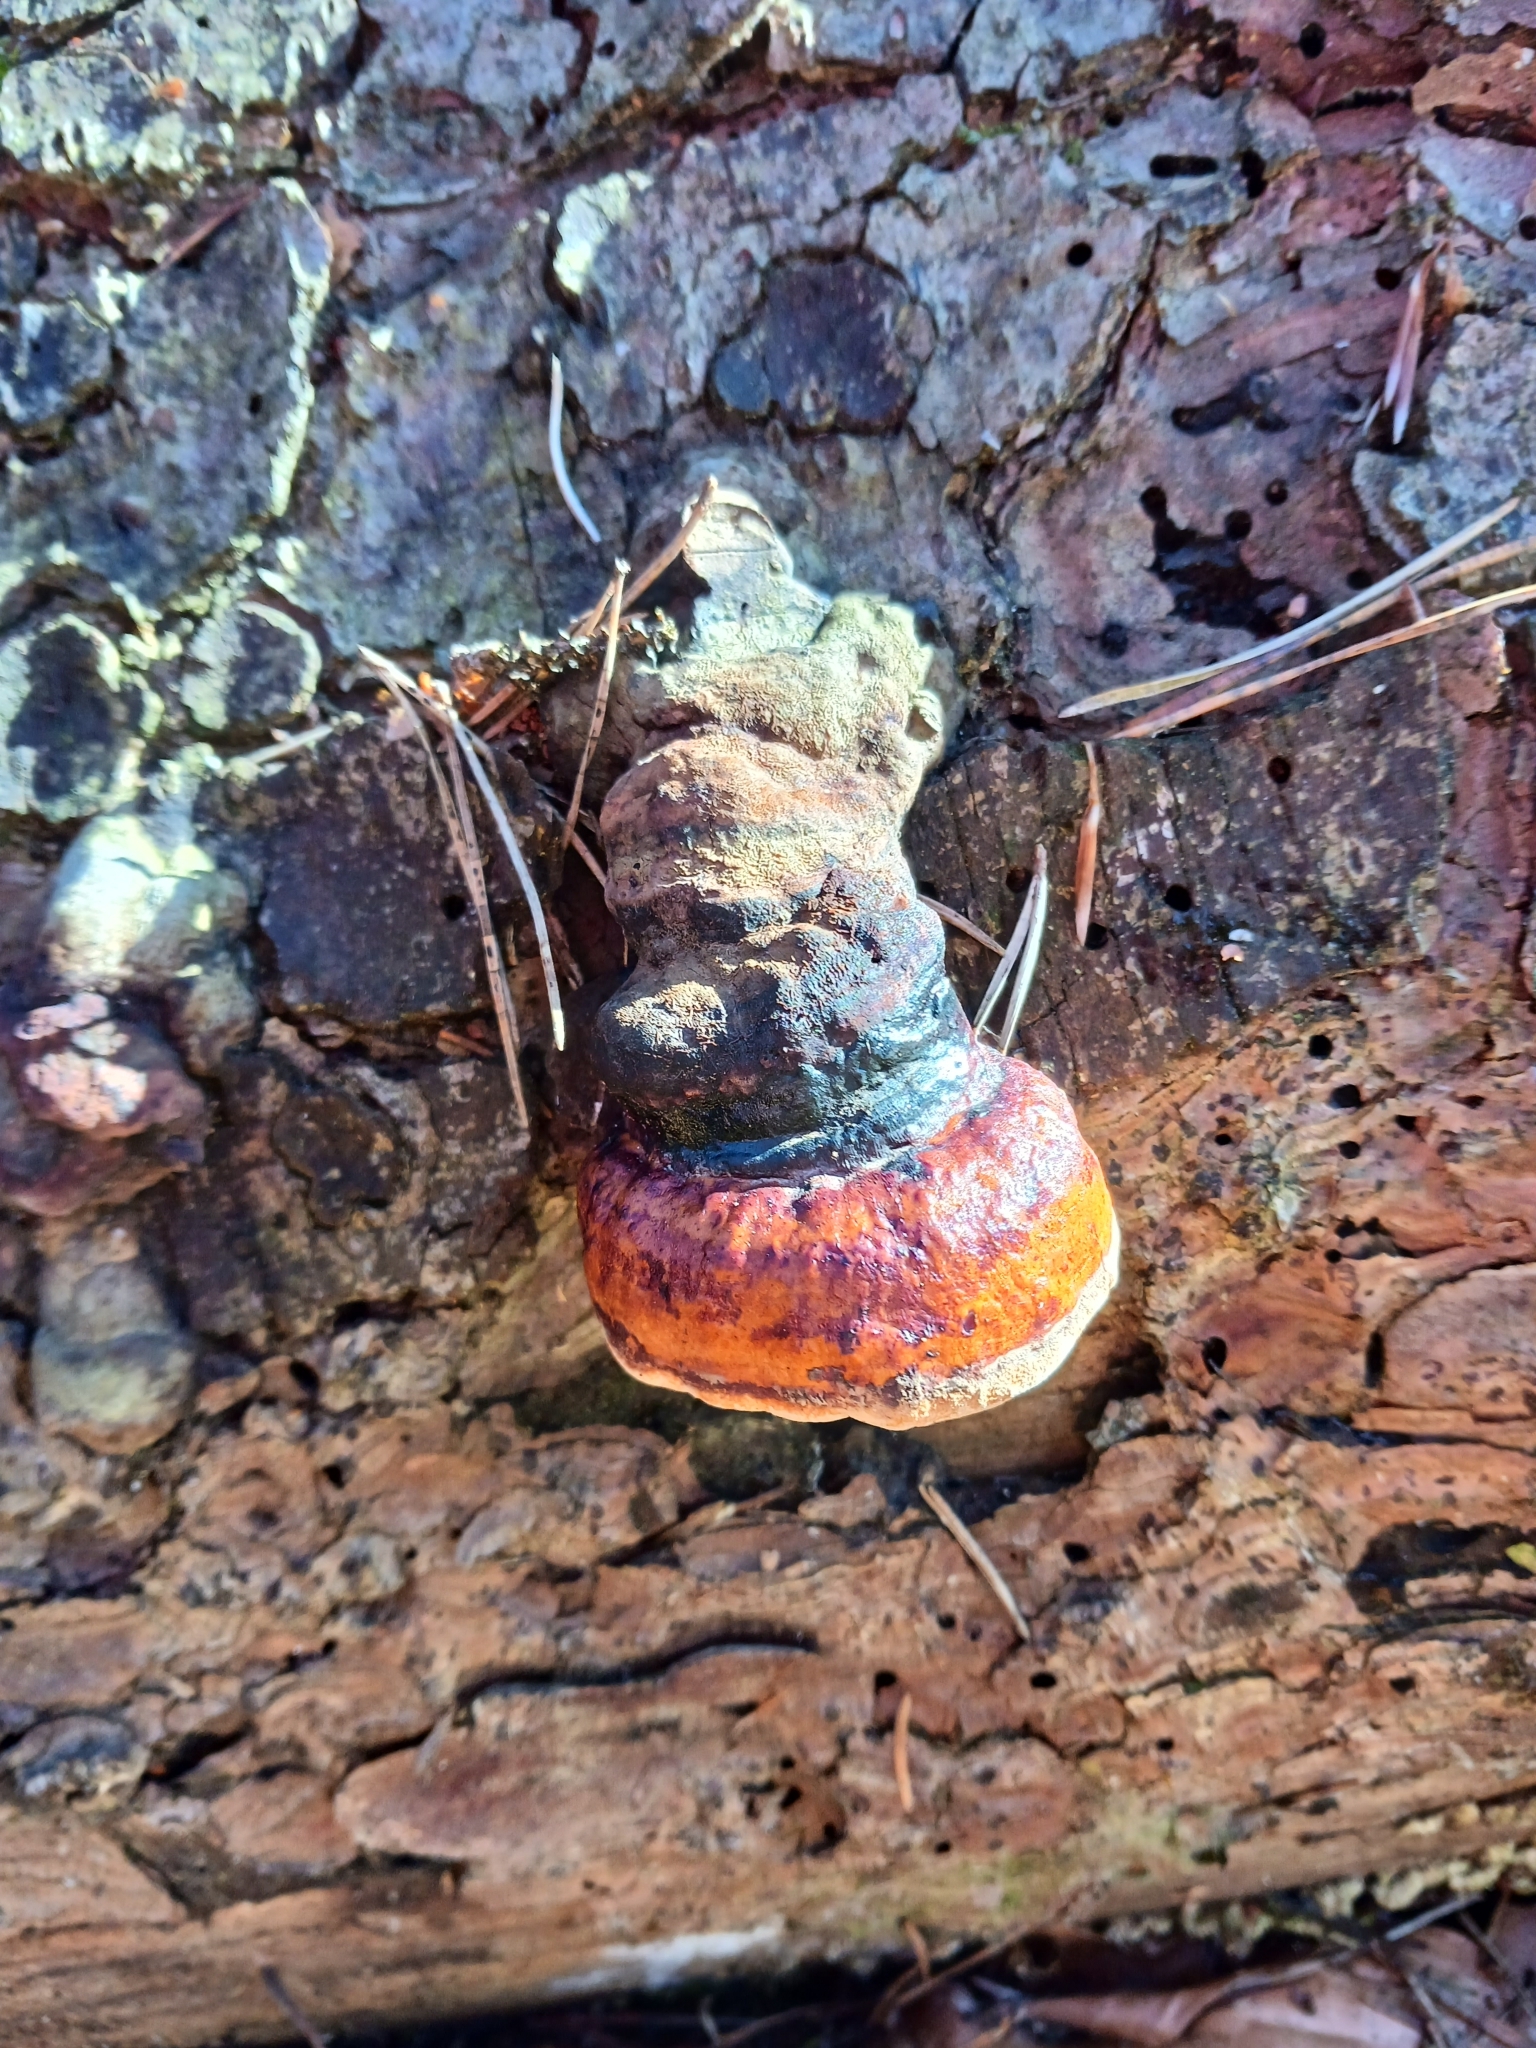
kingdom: Fungi
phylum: Basidiomycota
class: Agaricomycetes
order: Polyporales
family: Fomitopsidaceae
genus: Fomitopsis
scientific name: Fomitopsis pinicola
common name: Red-belted bracket
